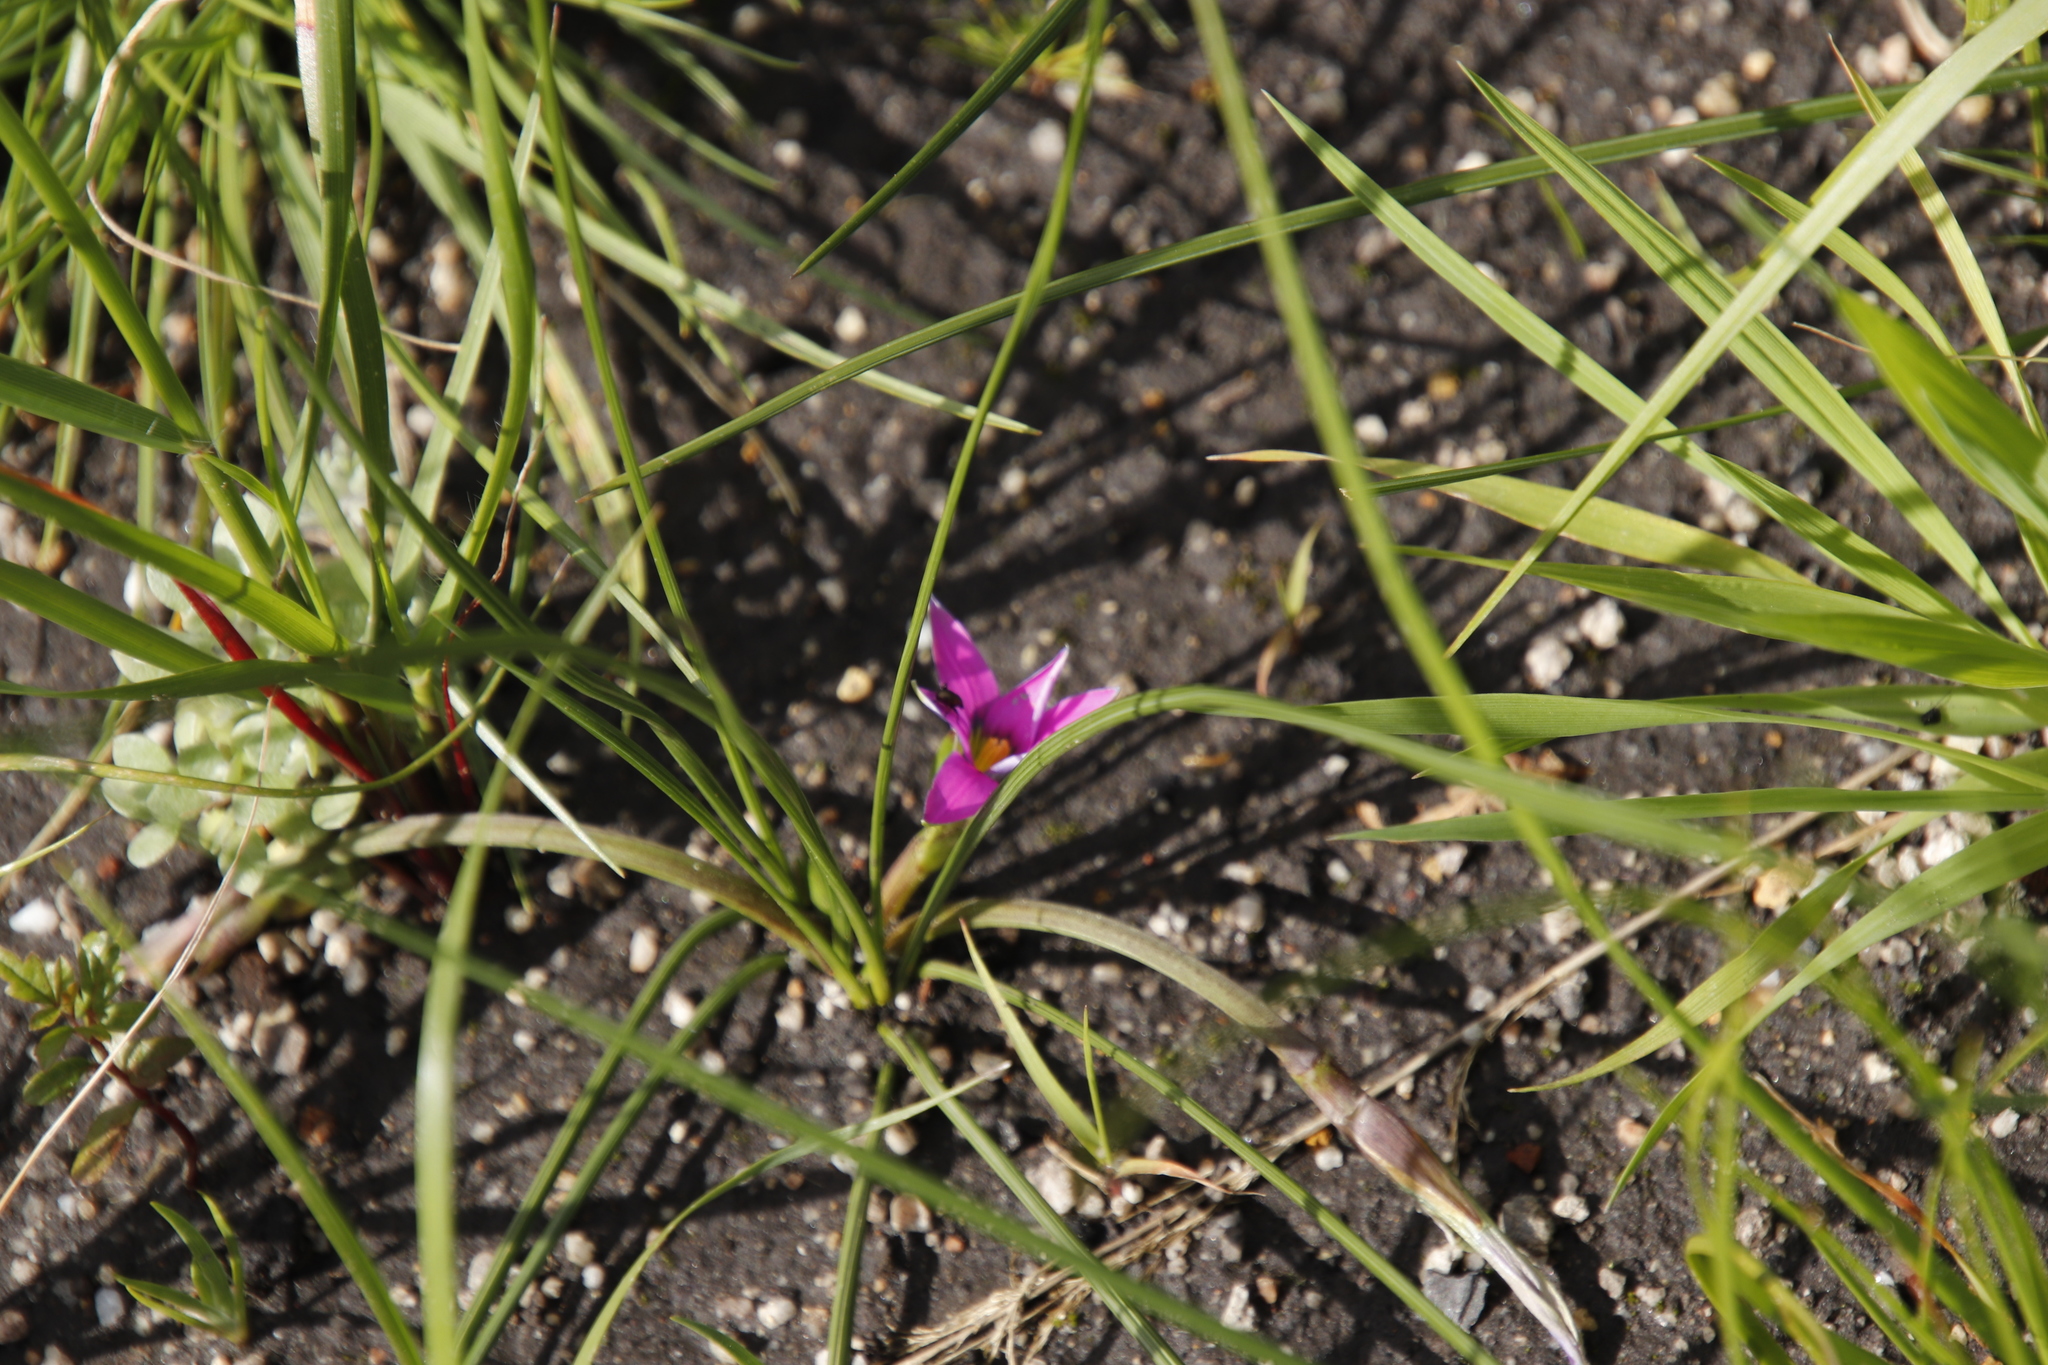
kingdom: Plantae
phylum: Tracheophyta
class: Liliopsida
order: Asparagales
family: Iridaceae
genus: Romulea
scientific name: Romulea rosea
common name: Oniongrass
